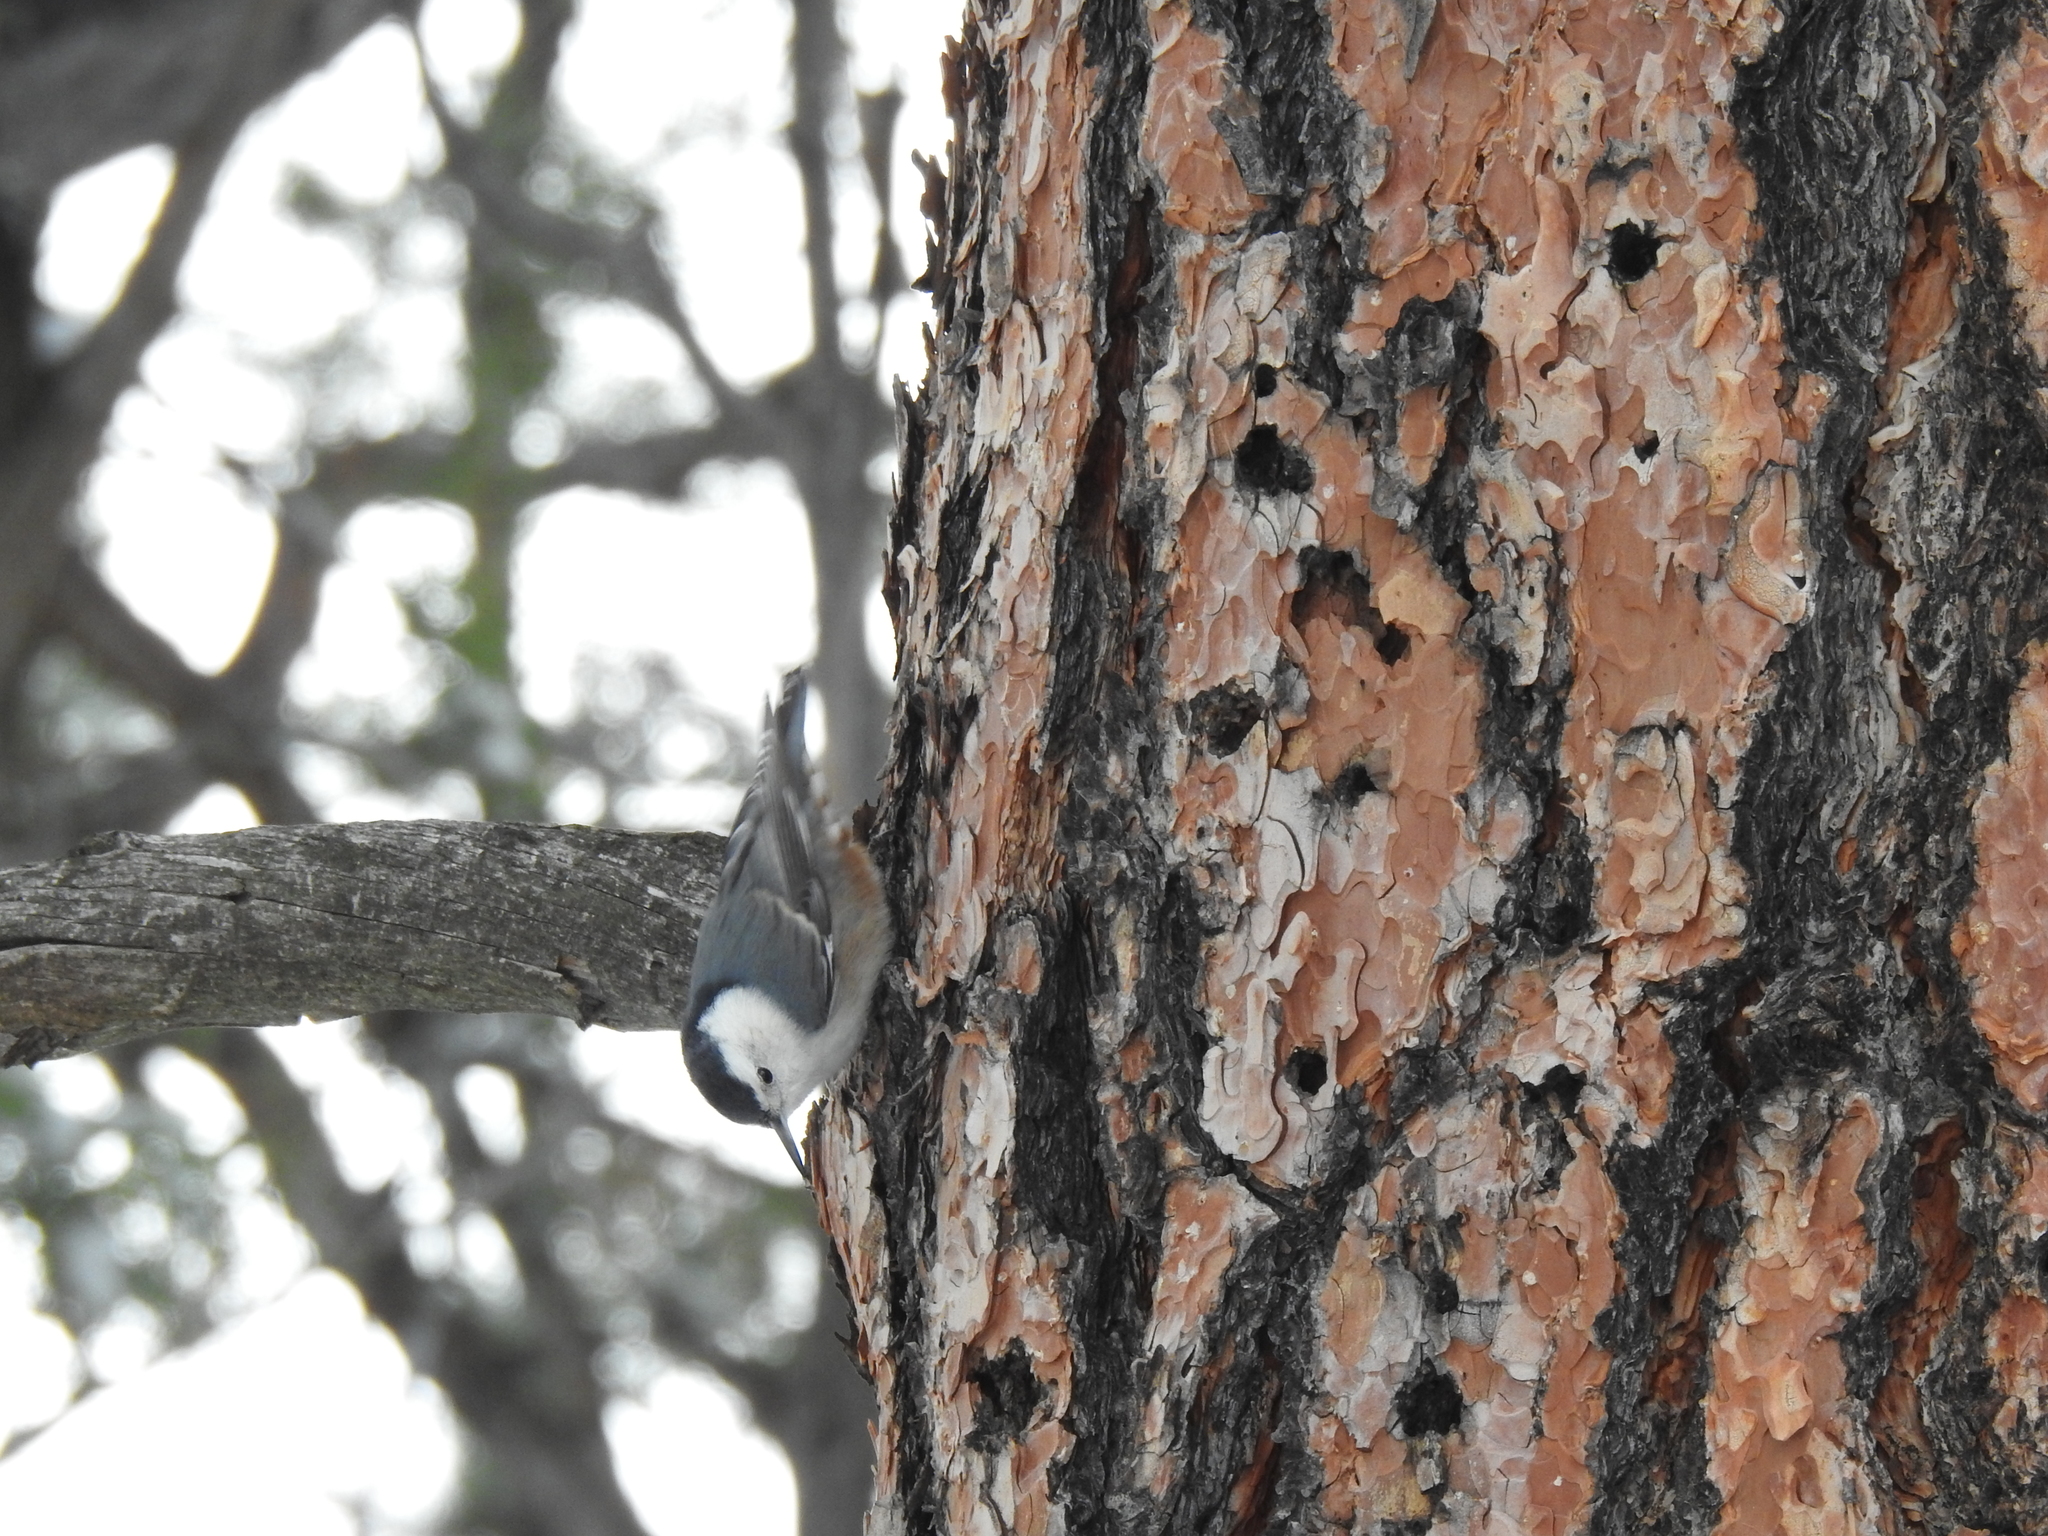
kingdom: Animalia
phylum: Chordata
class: Aves
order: Passeriformes
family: Sittidae
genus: Sitta
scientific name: Sitta carolinensis
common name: White-breasted nuthatch
